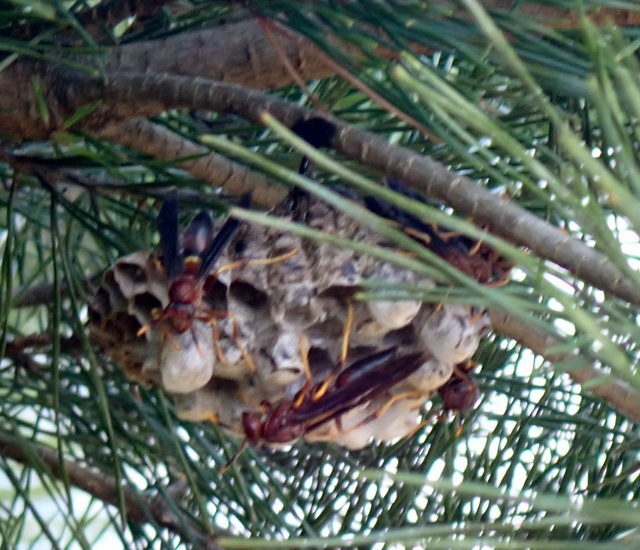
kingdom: Animalia
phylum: Arthropoda
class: Insecta
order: Hymenoptera
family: Eumenidae
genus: Polistes
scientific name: Polistes annularis
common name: Ringed paper wasp
